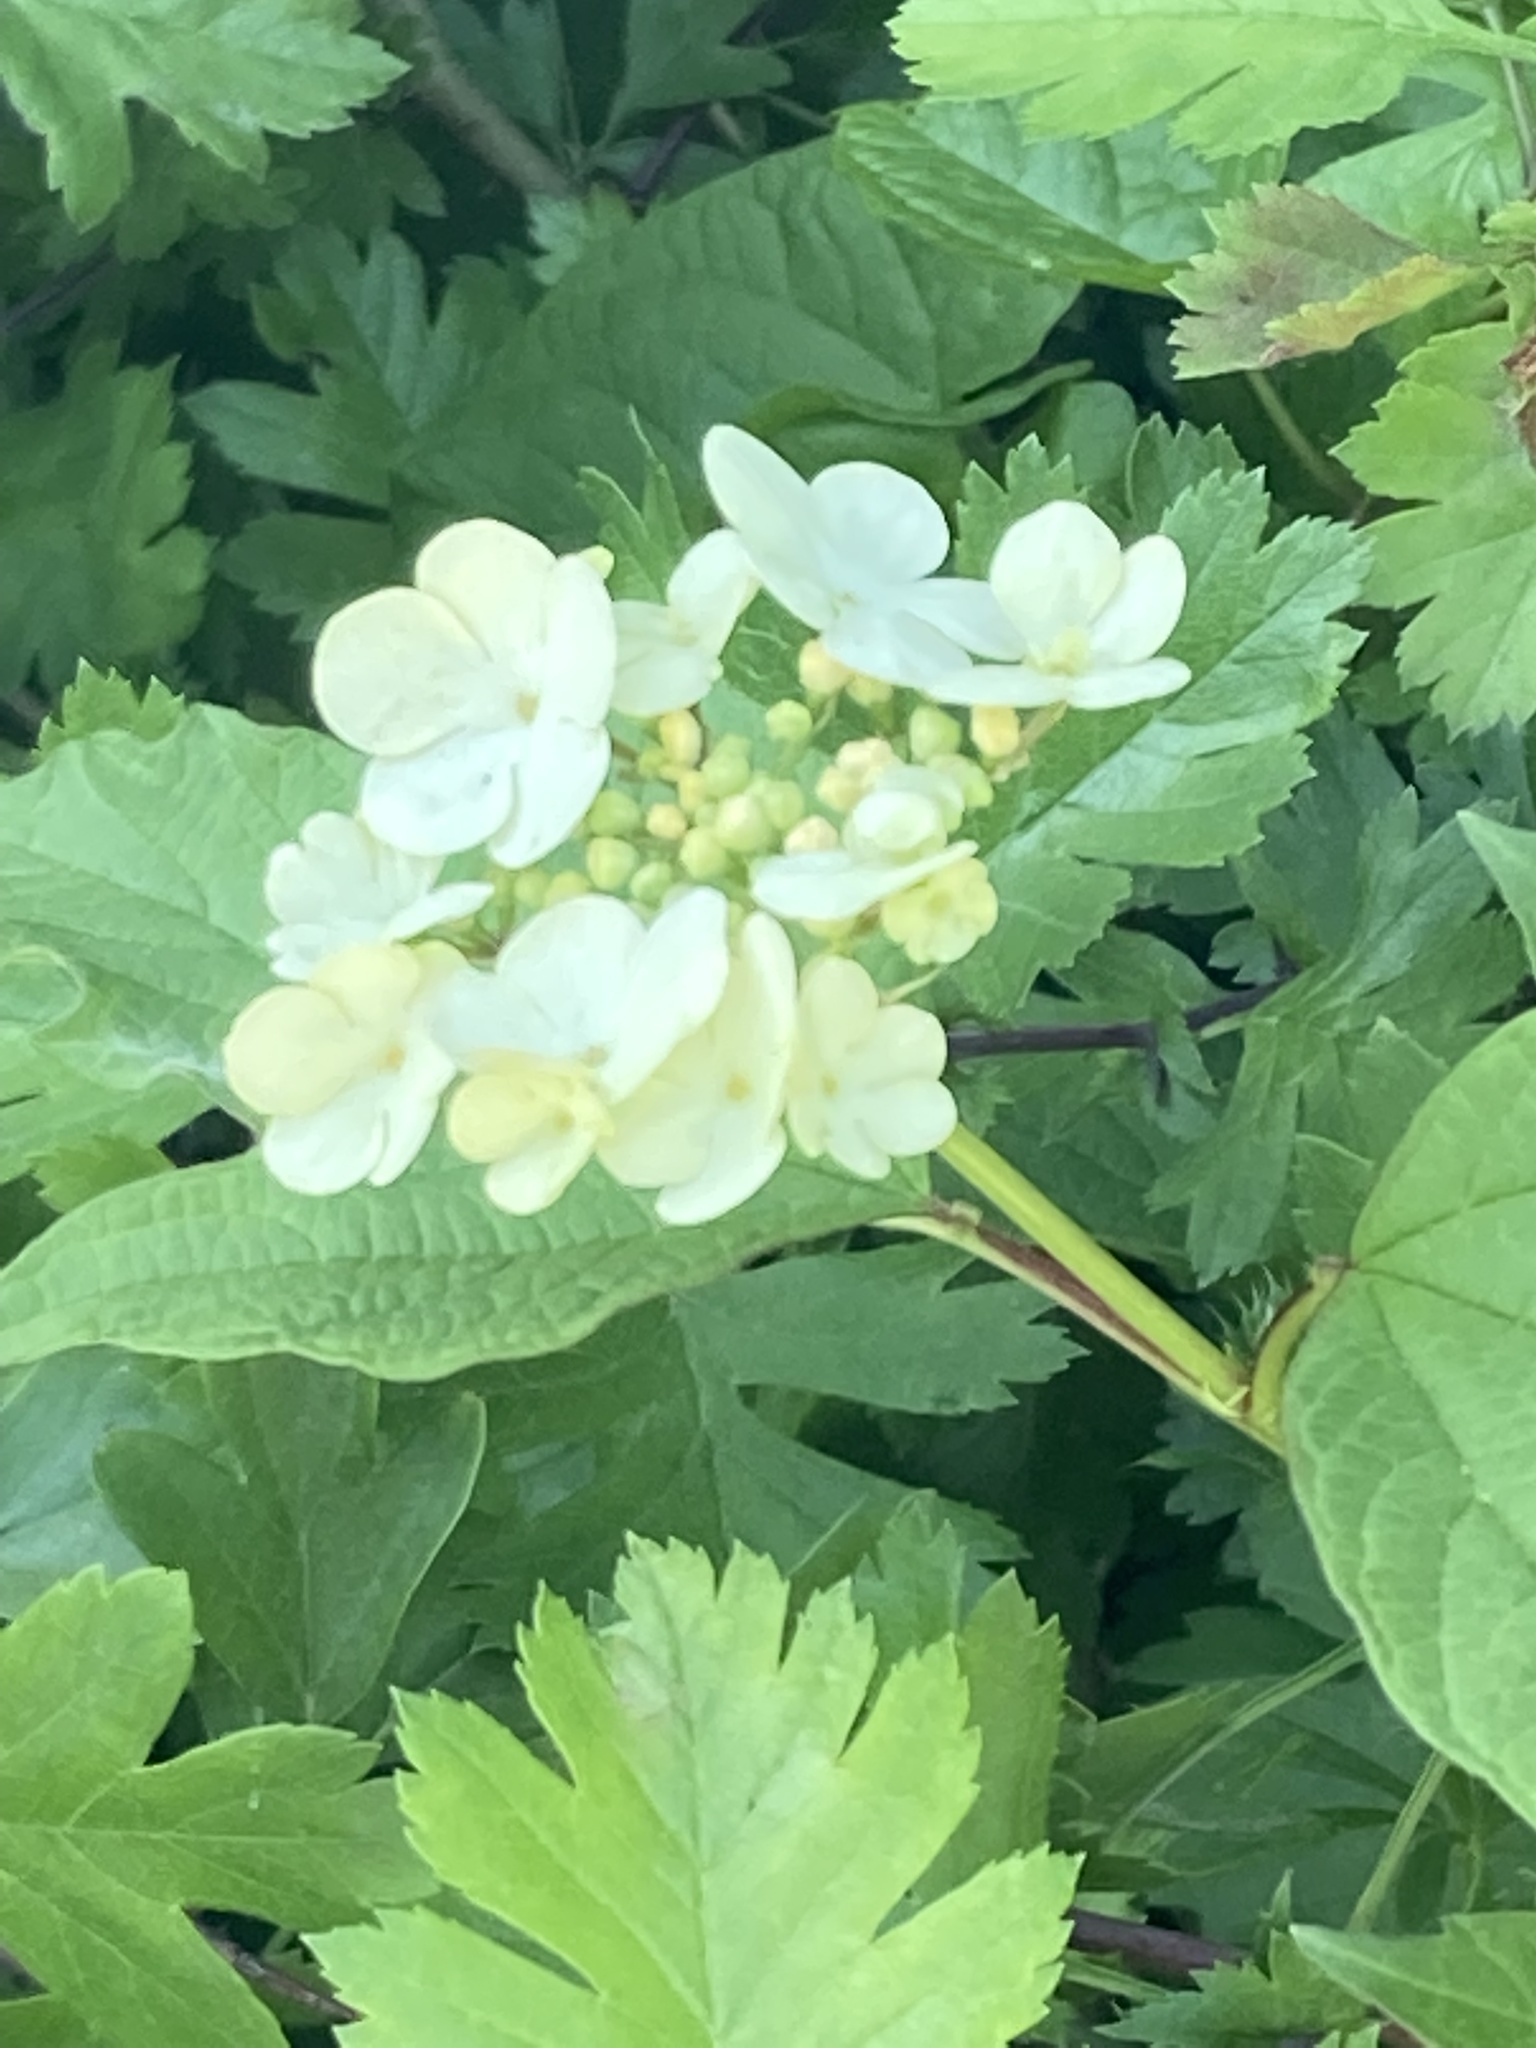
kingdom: Plantae
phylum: Tracheophyta
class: Magnoliopsida
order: Dipsacales
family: Viburnaceae
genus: Viburnum
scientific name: Viburnum opulus
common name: Guelder-rose
